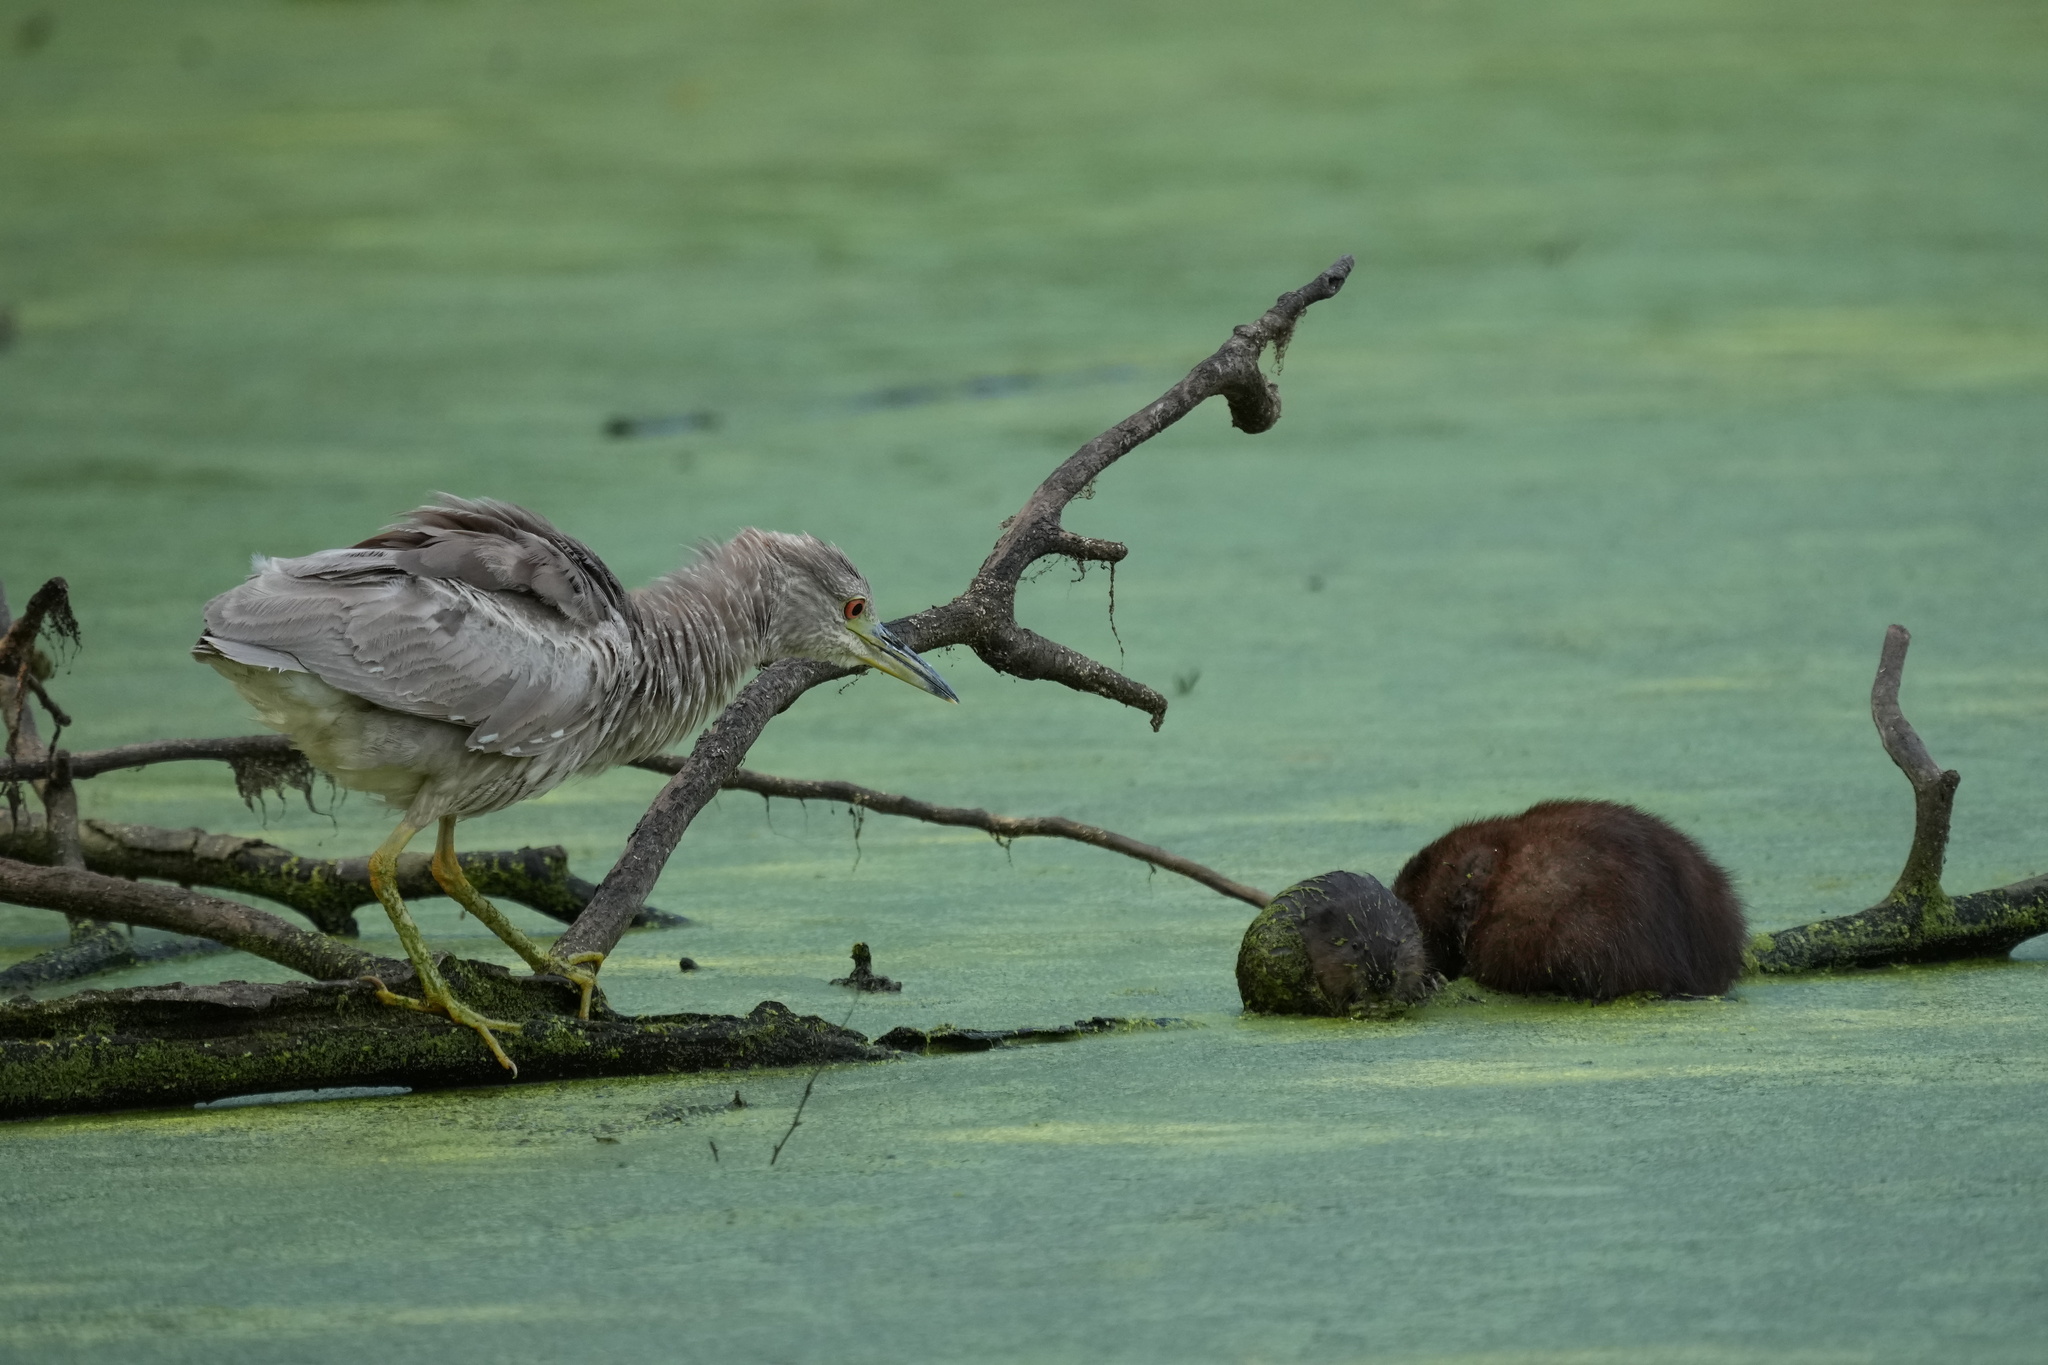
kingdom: Animalia
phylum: Chordata
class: Aves
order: Pelecaniformes
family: Ardeidae
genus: Nycticorax
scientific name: Nycticorax nycticorax
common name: Black-crowned night heron
